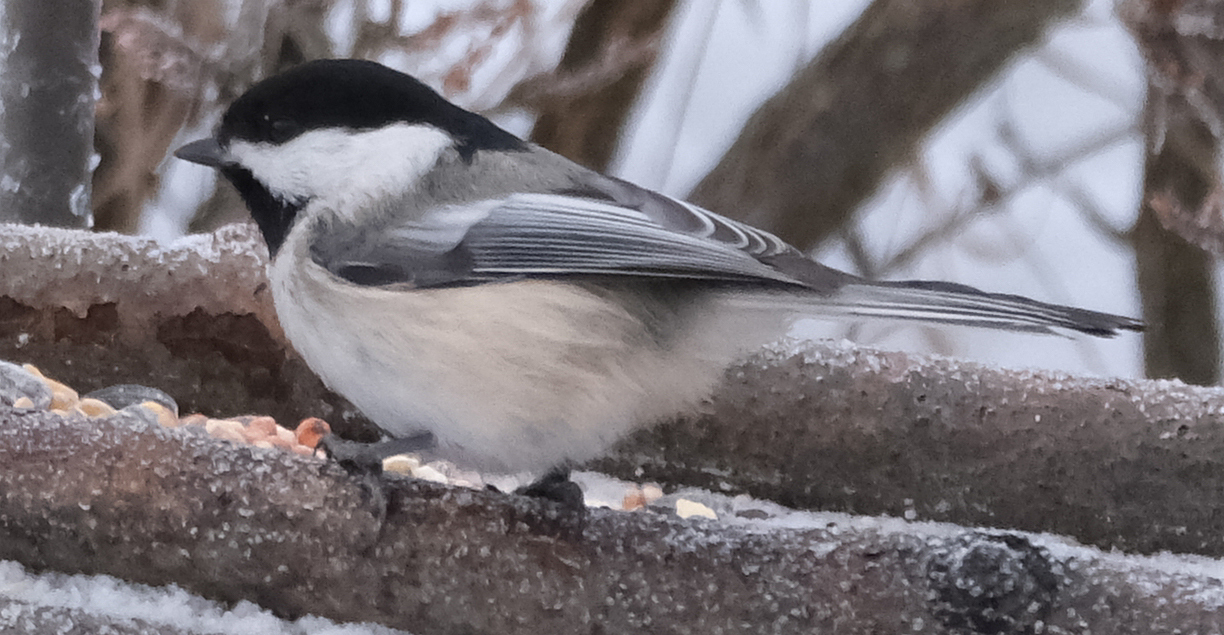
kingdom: Animalia
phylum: Chordata
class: Aves
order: Passeriformes
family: Paridae
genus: Poecile
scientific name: Poecile atricapillus
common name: Black-capped chickadee
